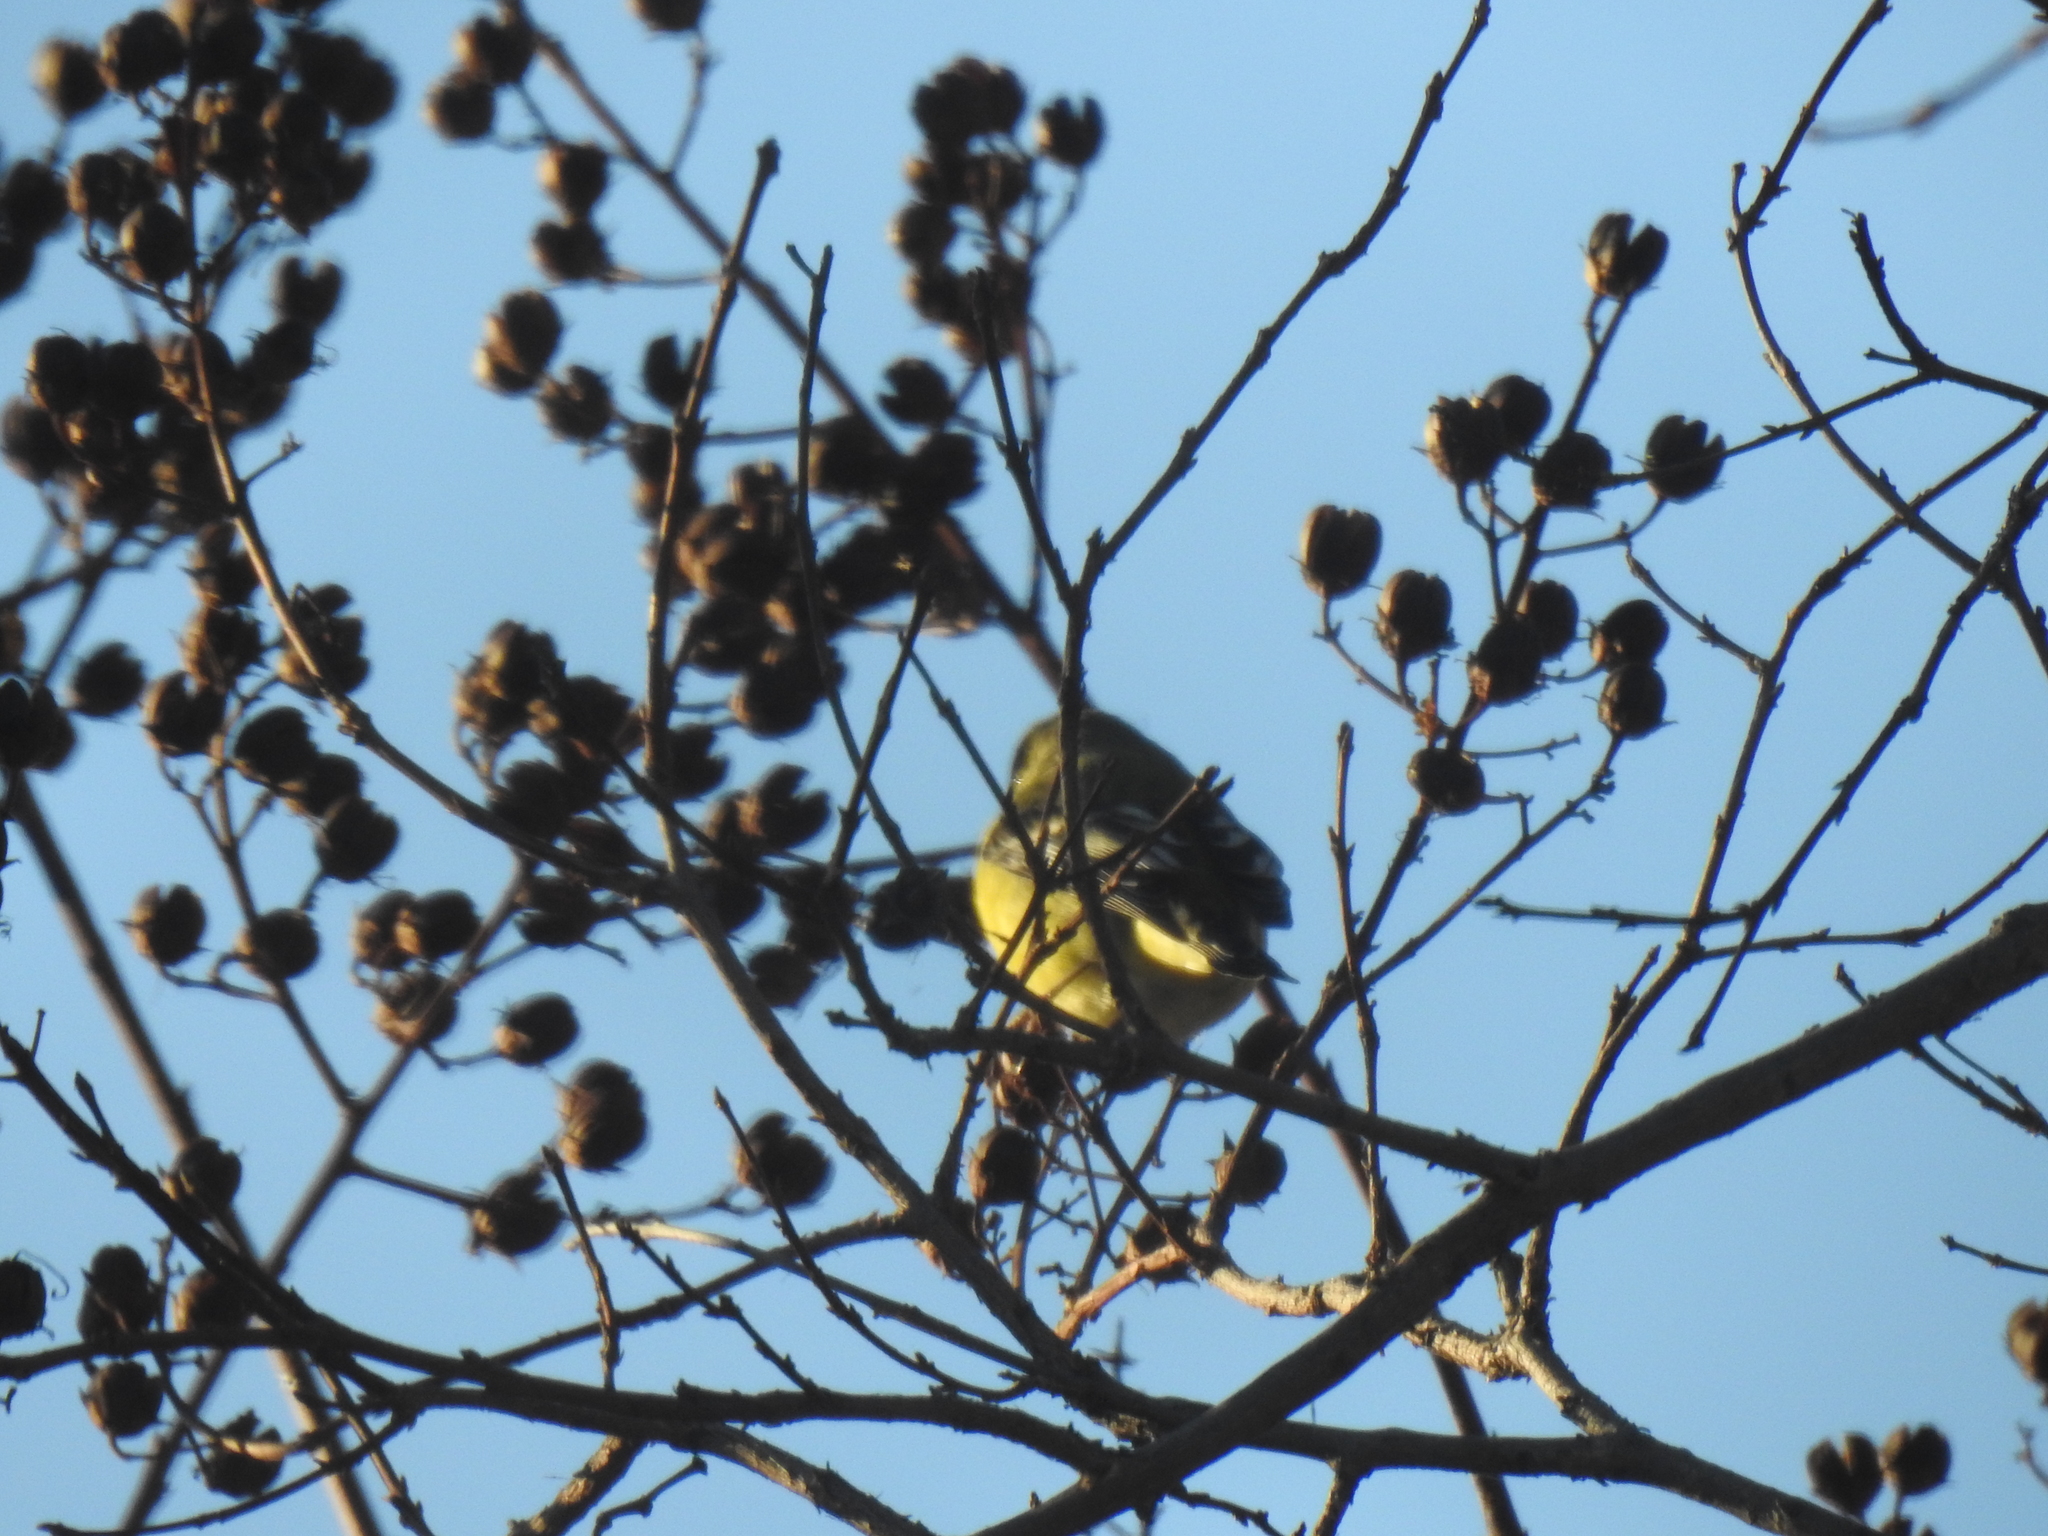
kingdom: Animalia
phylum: Chordata
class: Aves
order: Passeriformes
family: Fringillidae
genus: Spinus
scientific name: Spinus psaltria
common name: Lesser goldfinch
